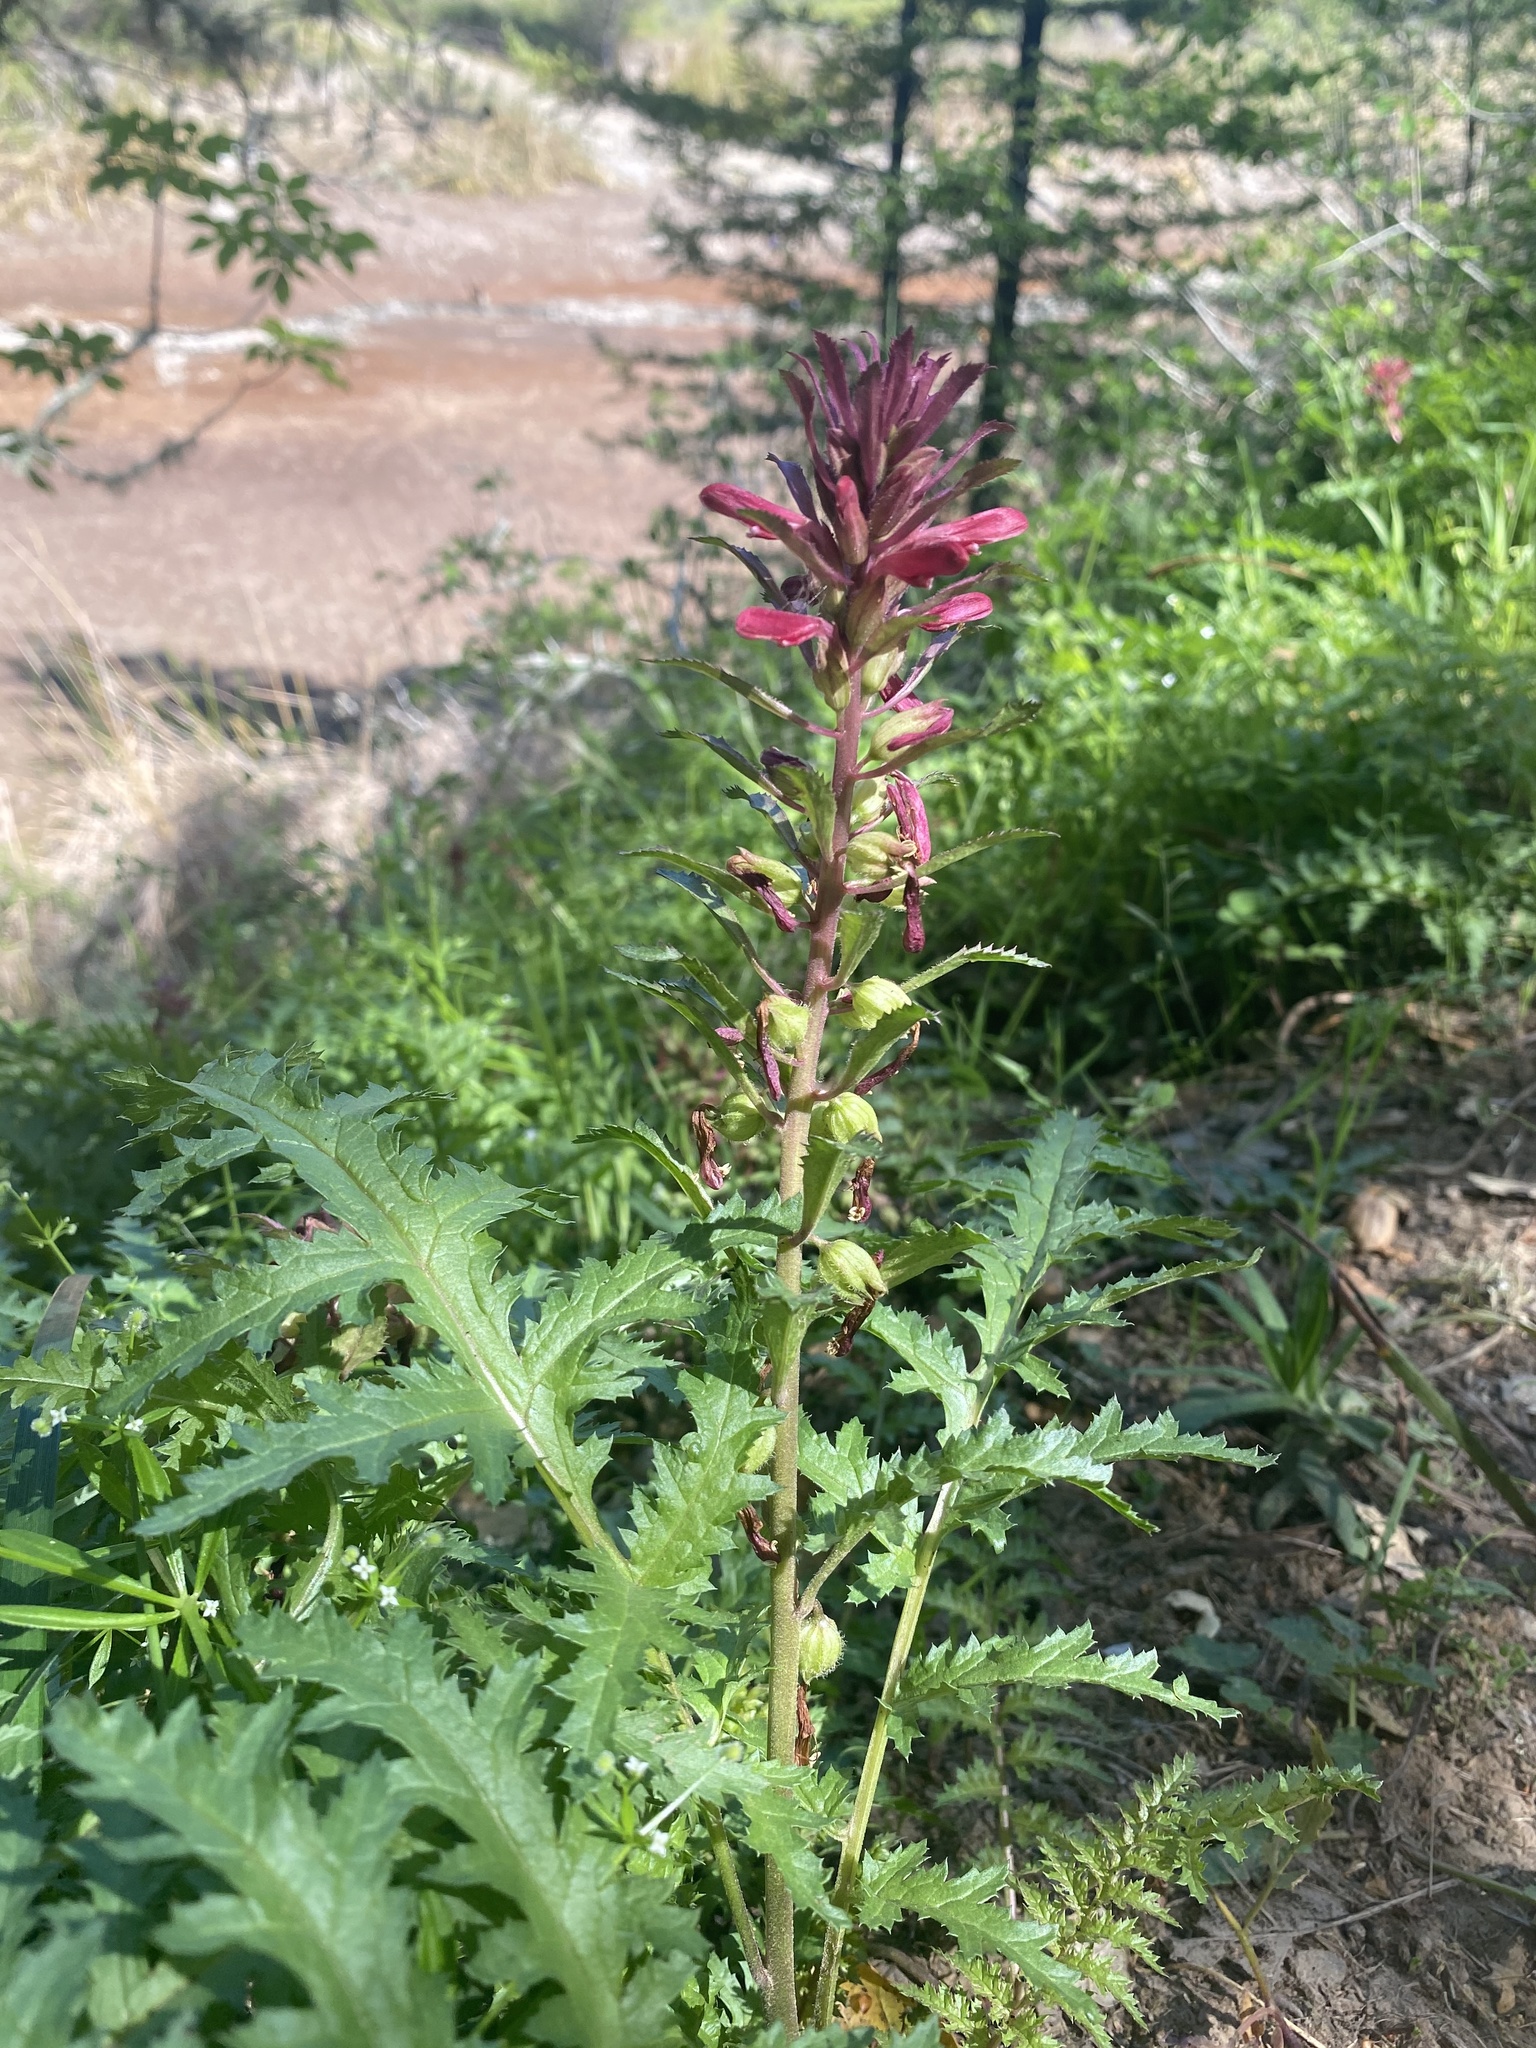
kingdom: Plantae
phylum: Tracheophyta
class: Magnoliopsida
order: Lamiales
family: Orobanchaceae
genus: Pedicularis
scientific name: Pedicularis densiflora
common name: Indian warrior
